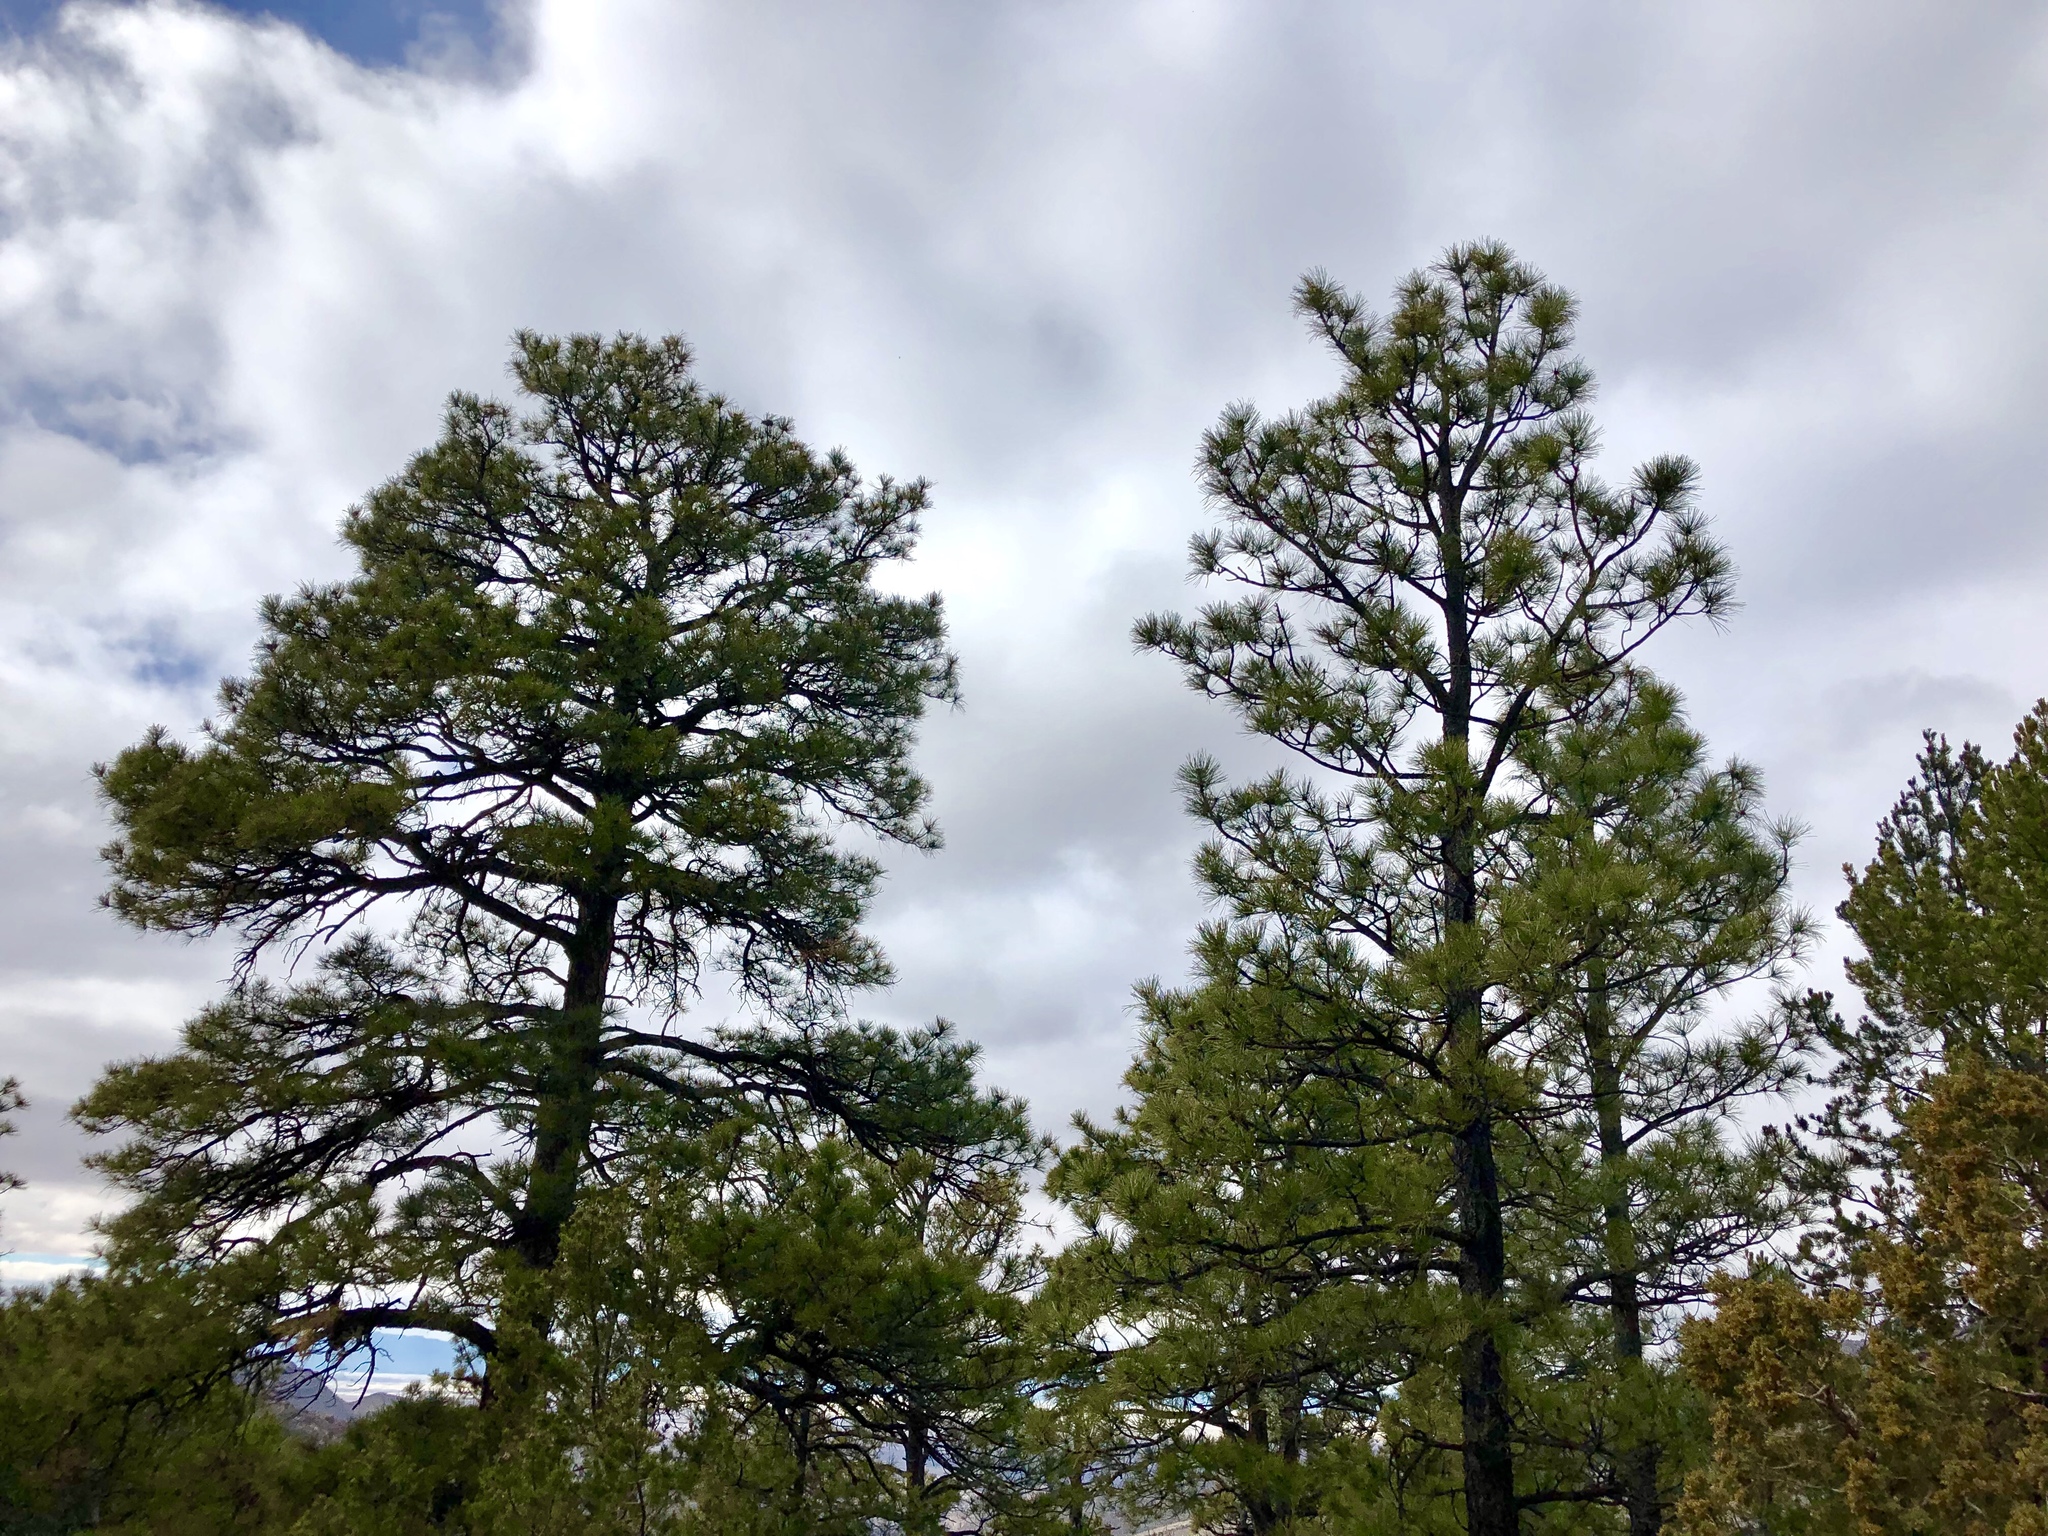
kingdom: Plantae
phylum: Tracheophyta
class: Pinopsida
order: Pinales
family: Pinaceae
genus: Pinus
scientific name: Pinus ponderosa
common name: Western yellow-pine
